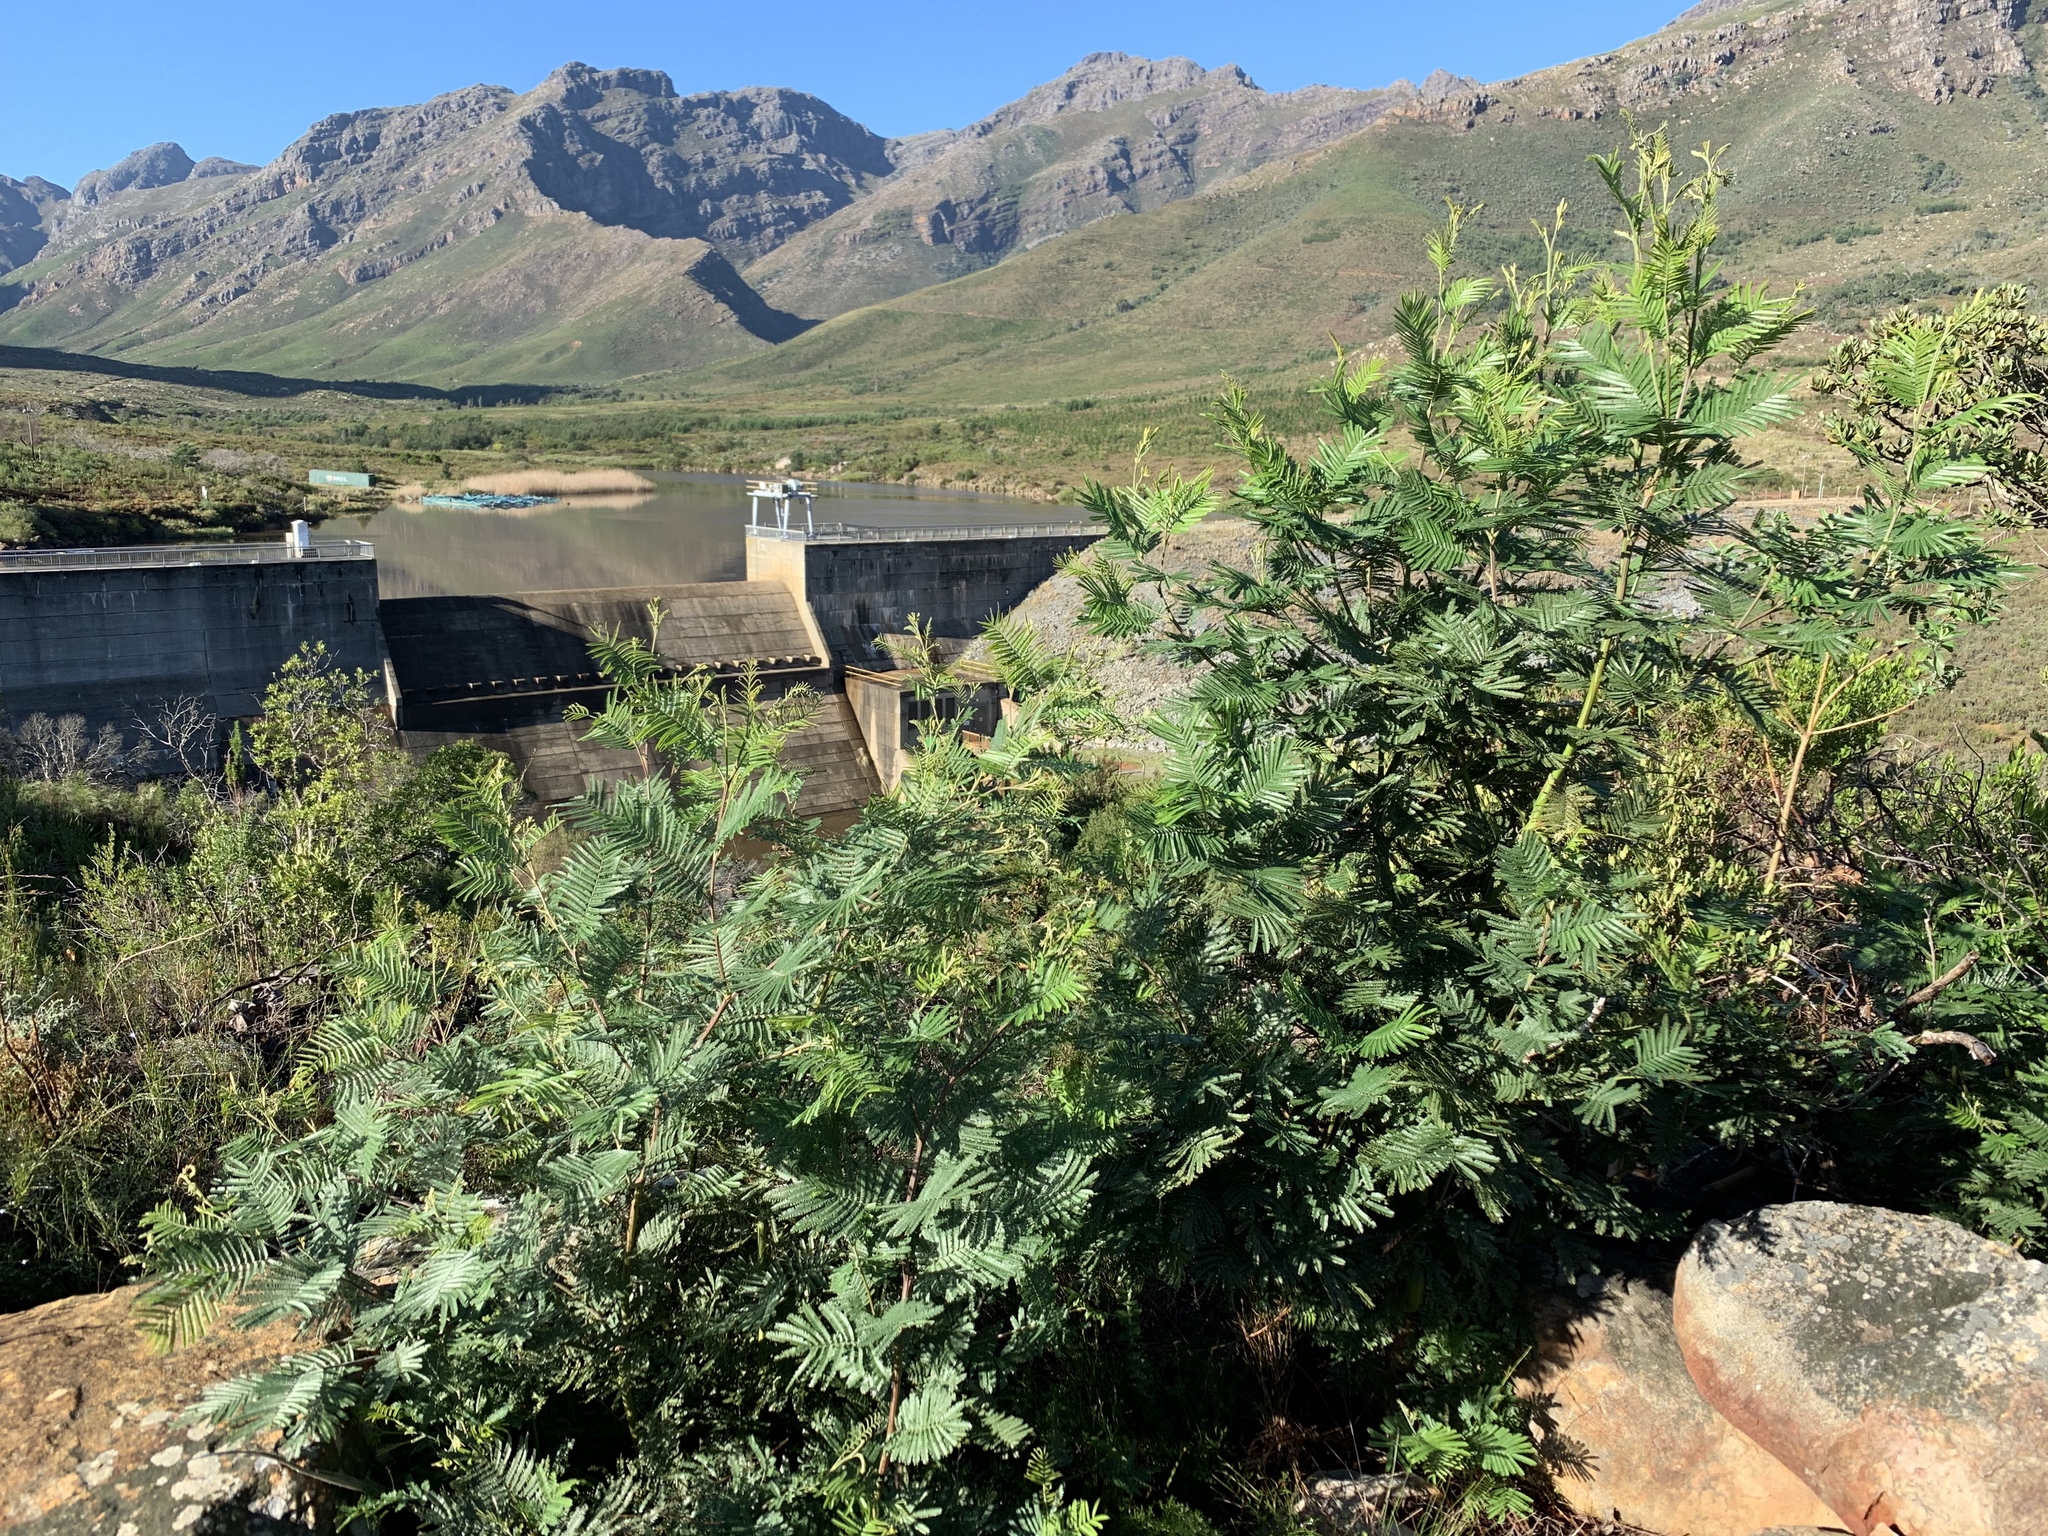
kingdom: Plantae
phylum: Tracheophyta
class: Magnoliopsida
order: Fabales
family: Fabaceae
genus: Acacia
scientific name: Acacia mearnsii
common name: Black wattle
